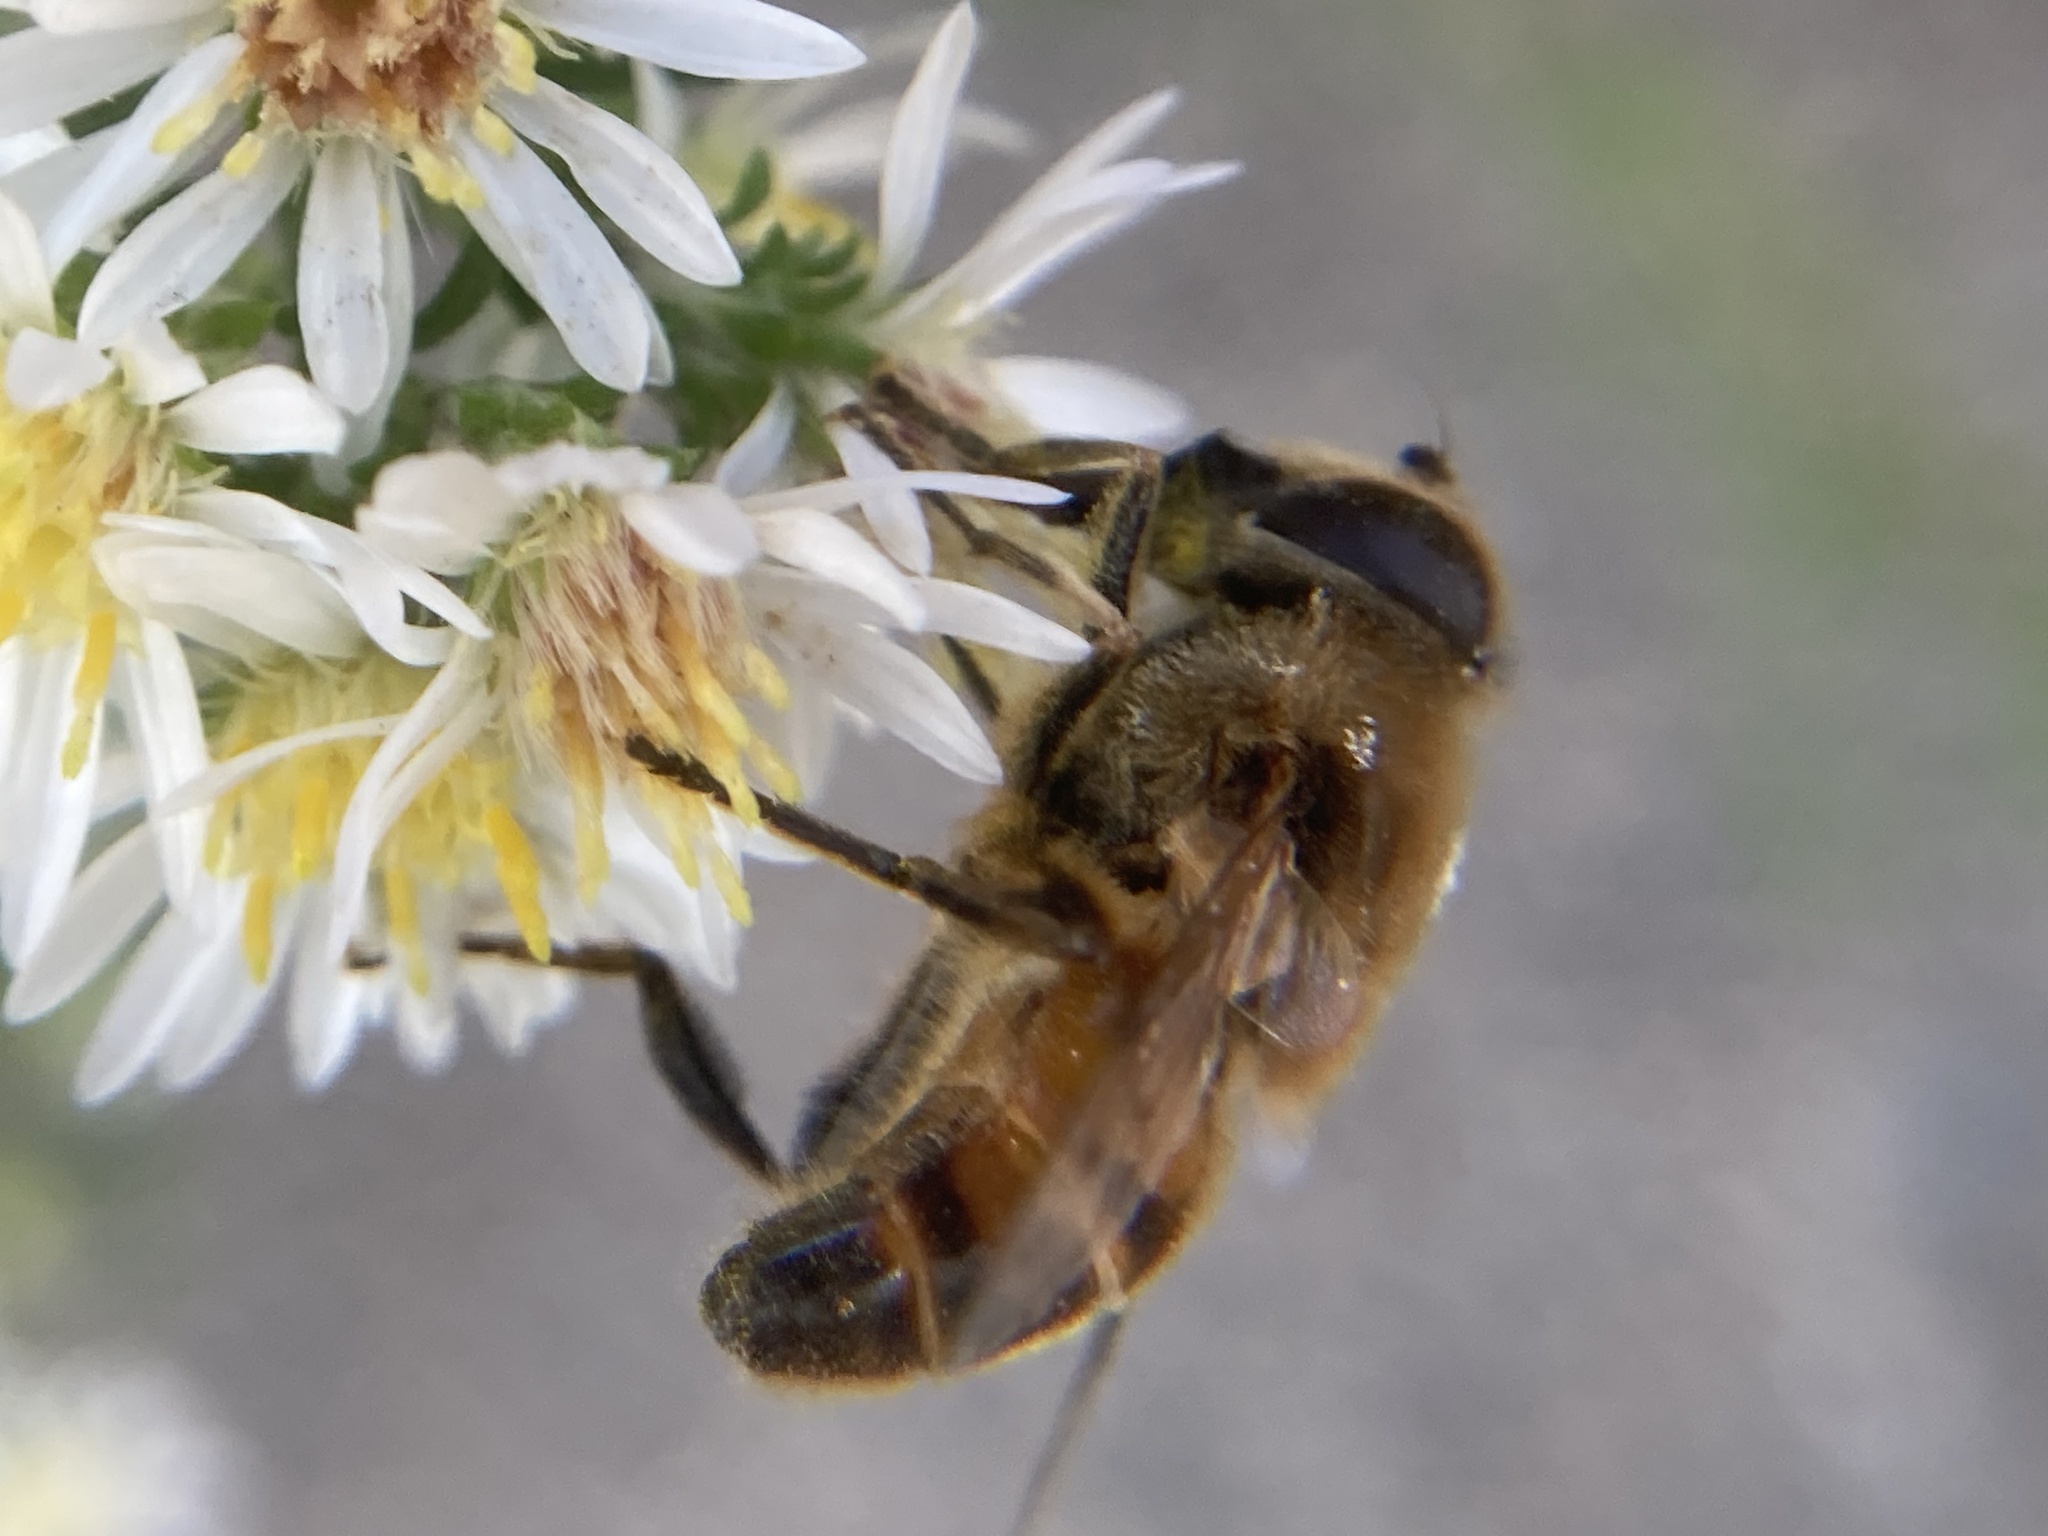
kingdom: Animalia
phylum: Arthropoda
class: Insecta
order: Diptera
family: Syrphidae
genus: Eristalis
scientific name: Eristalis tenax
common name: Drone fly
